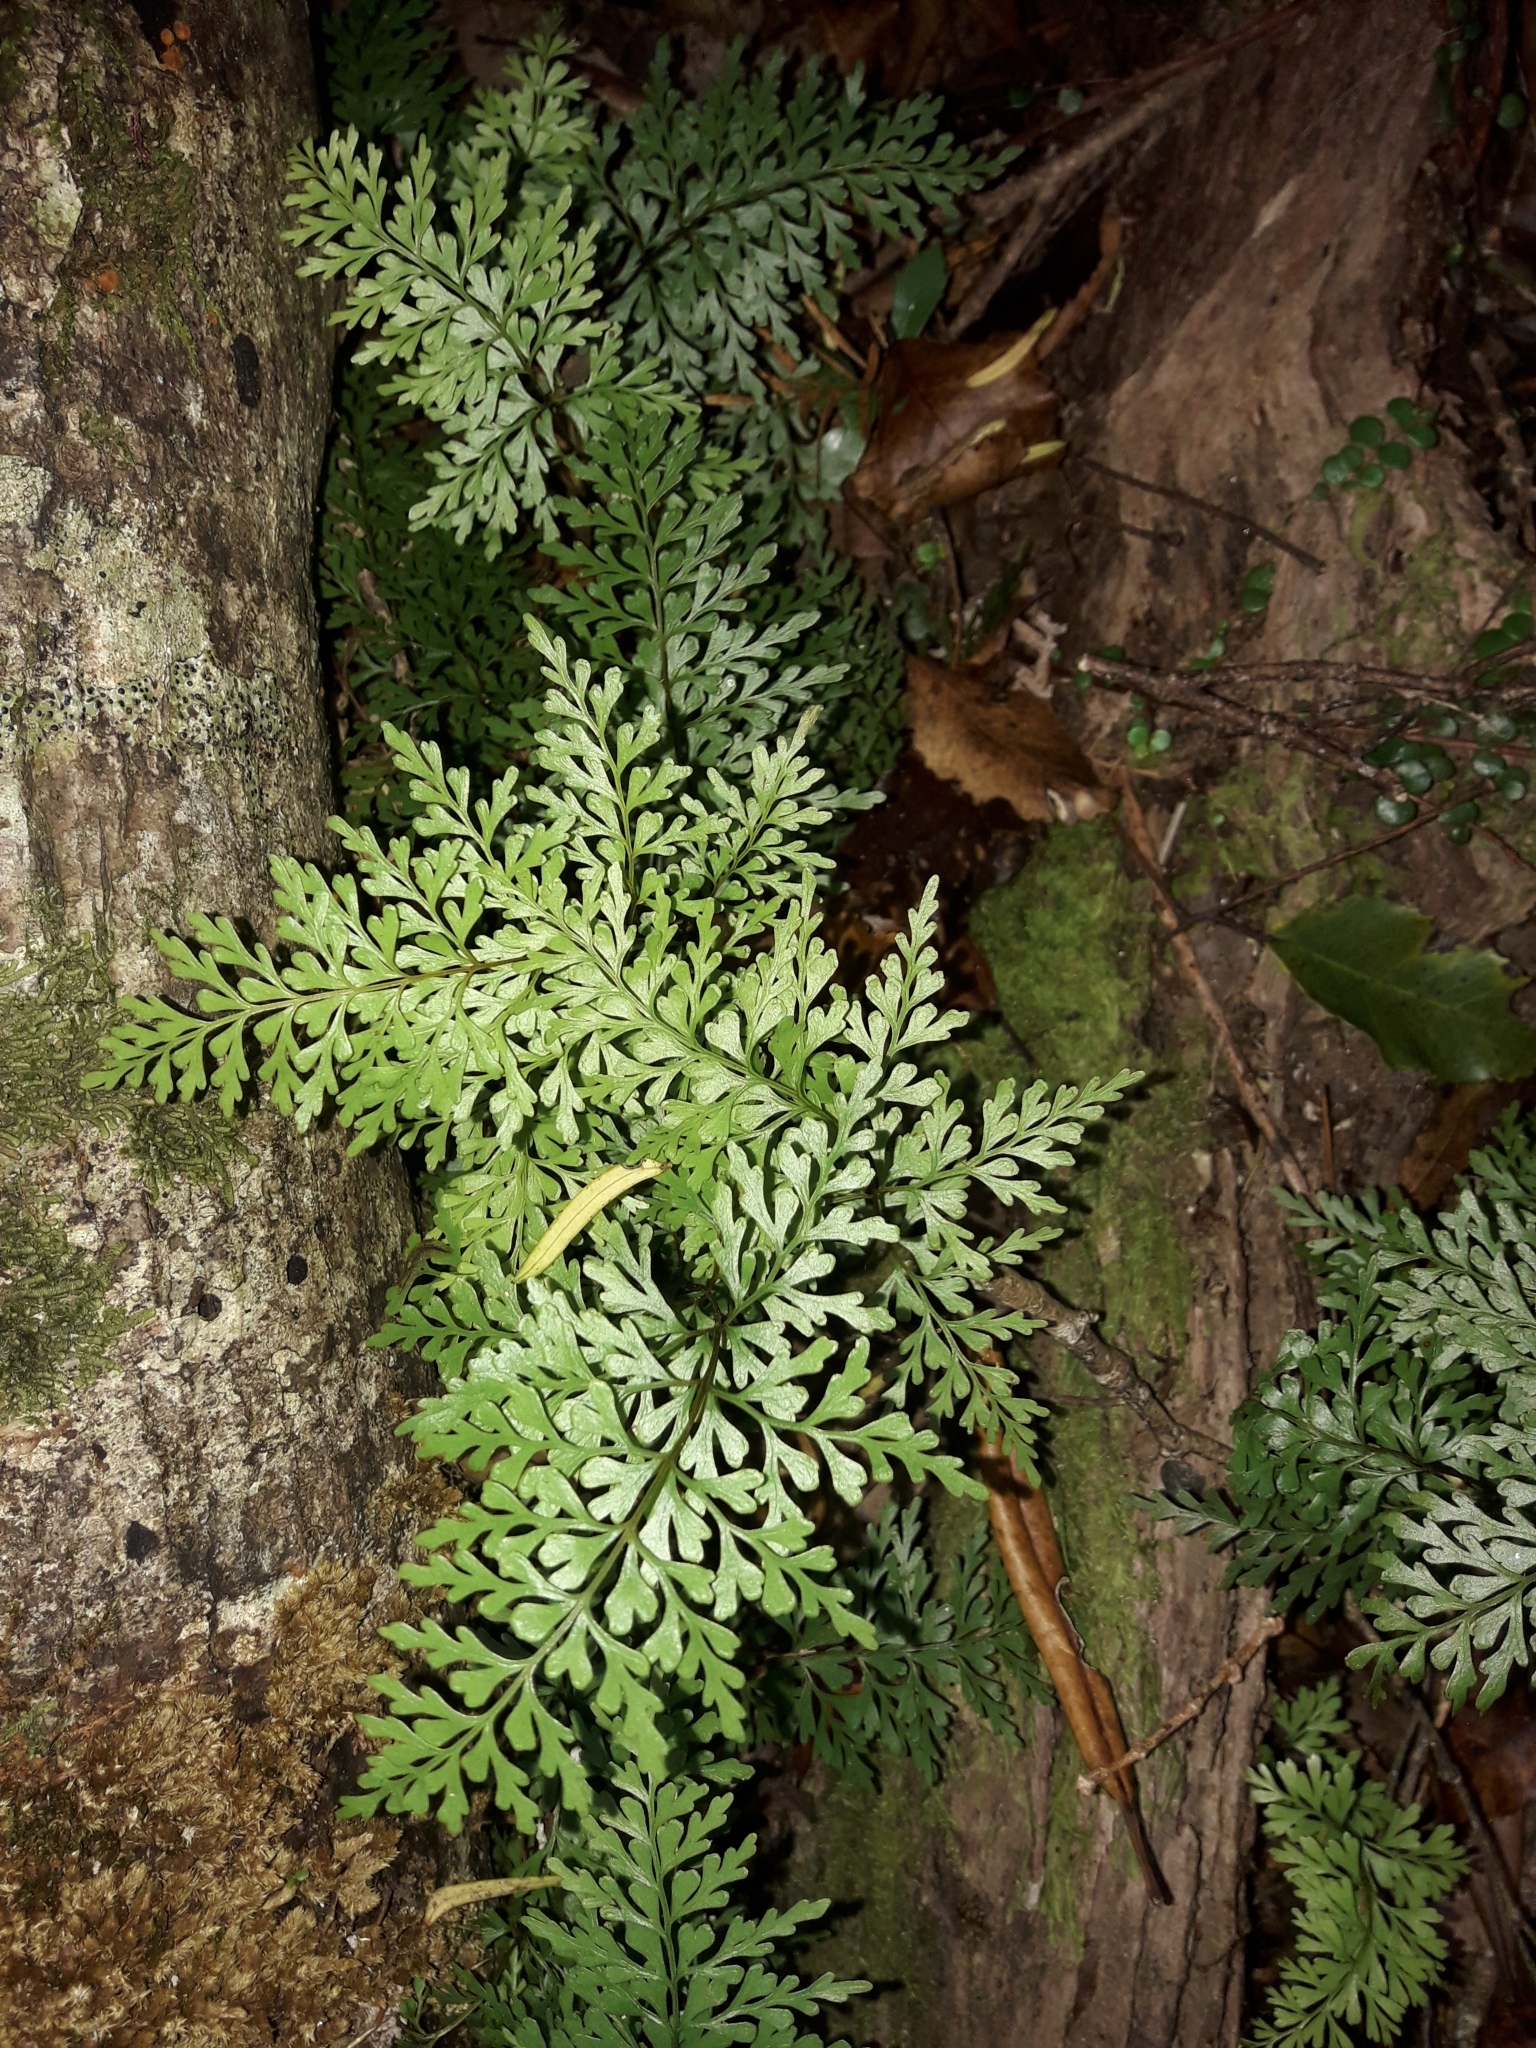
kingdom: Plantae
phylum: Tracheophyta
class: Polypodiopsida
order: Polypodiales
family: Lindsaeaceae
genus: Lindsaea
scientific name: Lindsaea trichomanoides
